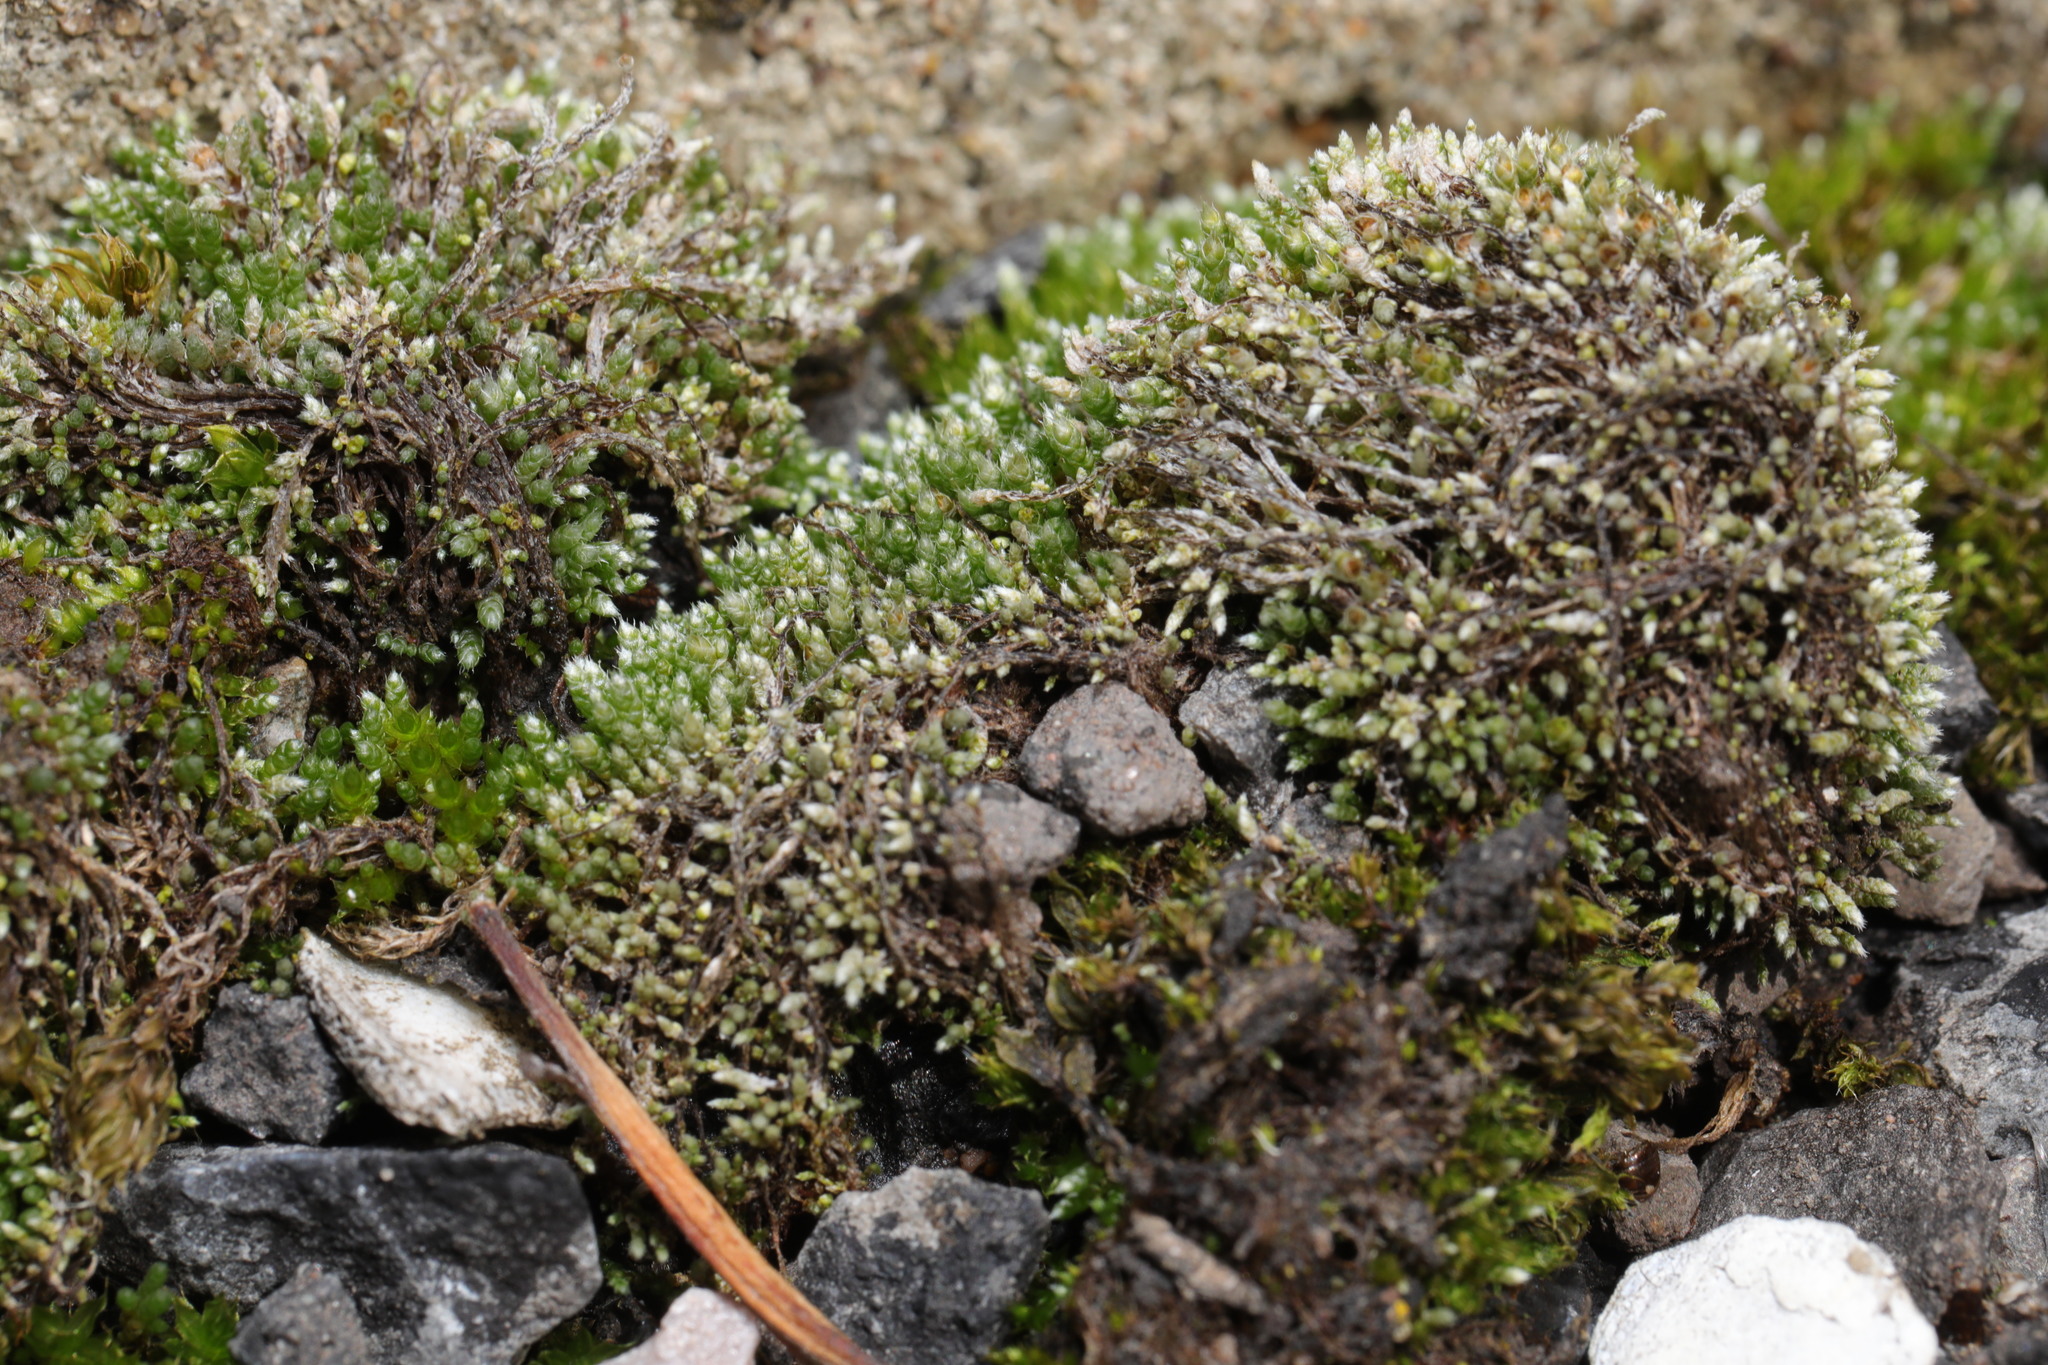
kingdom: Plantae
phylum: Bryophyta
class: Bryopsida
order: Bryales
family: Bryaceae
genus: Bryum
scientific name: Bryum argenteum
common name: Silver-moss
